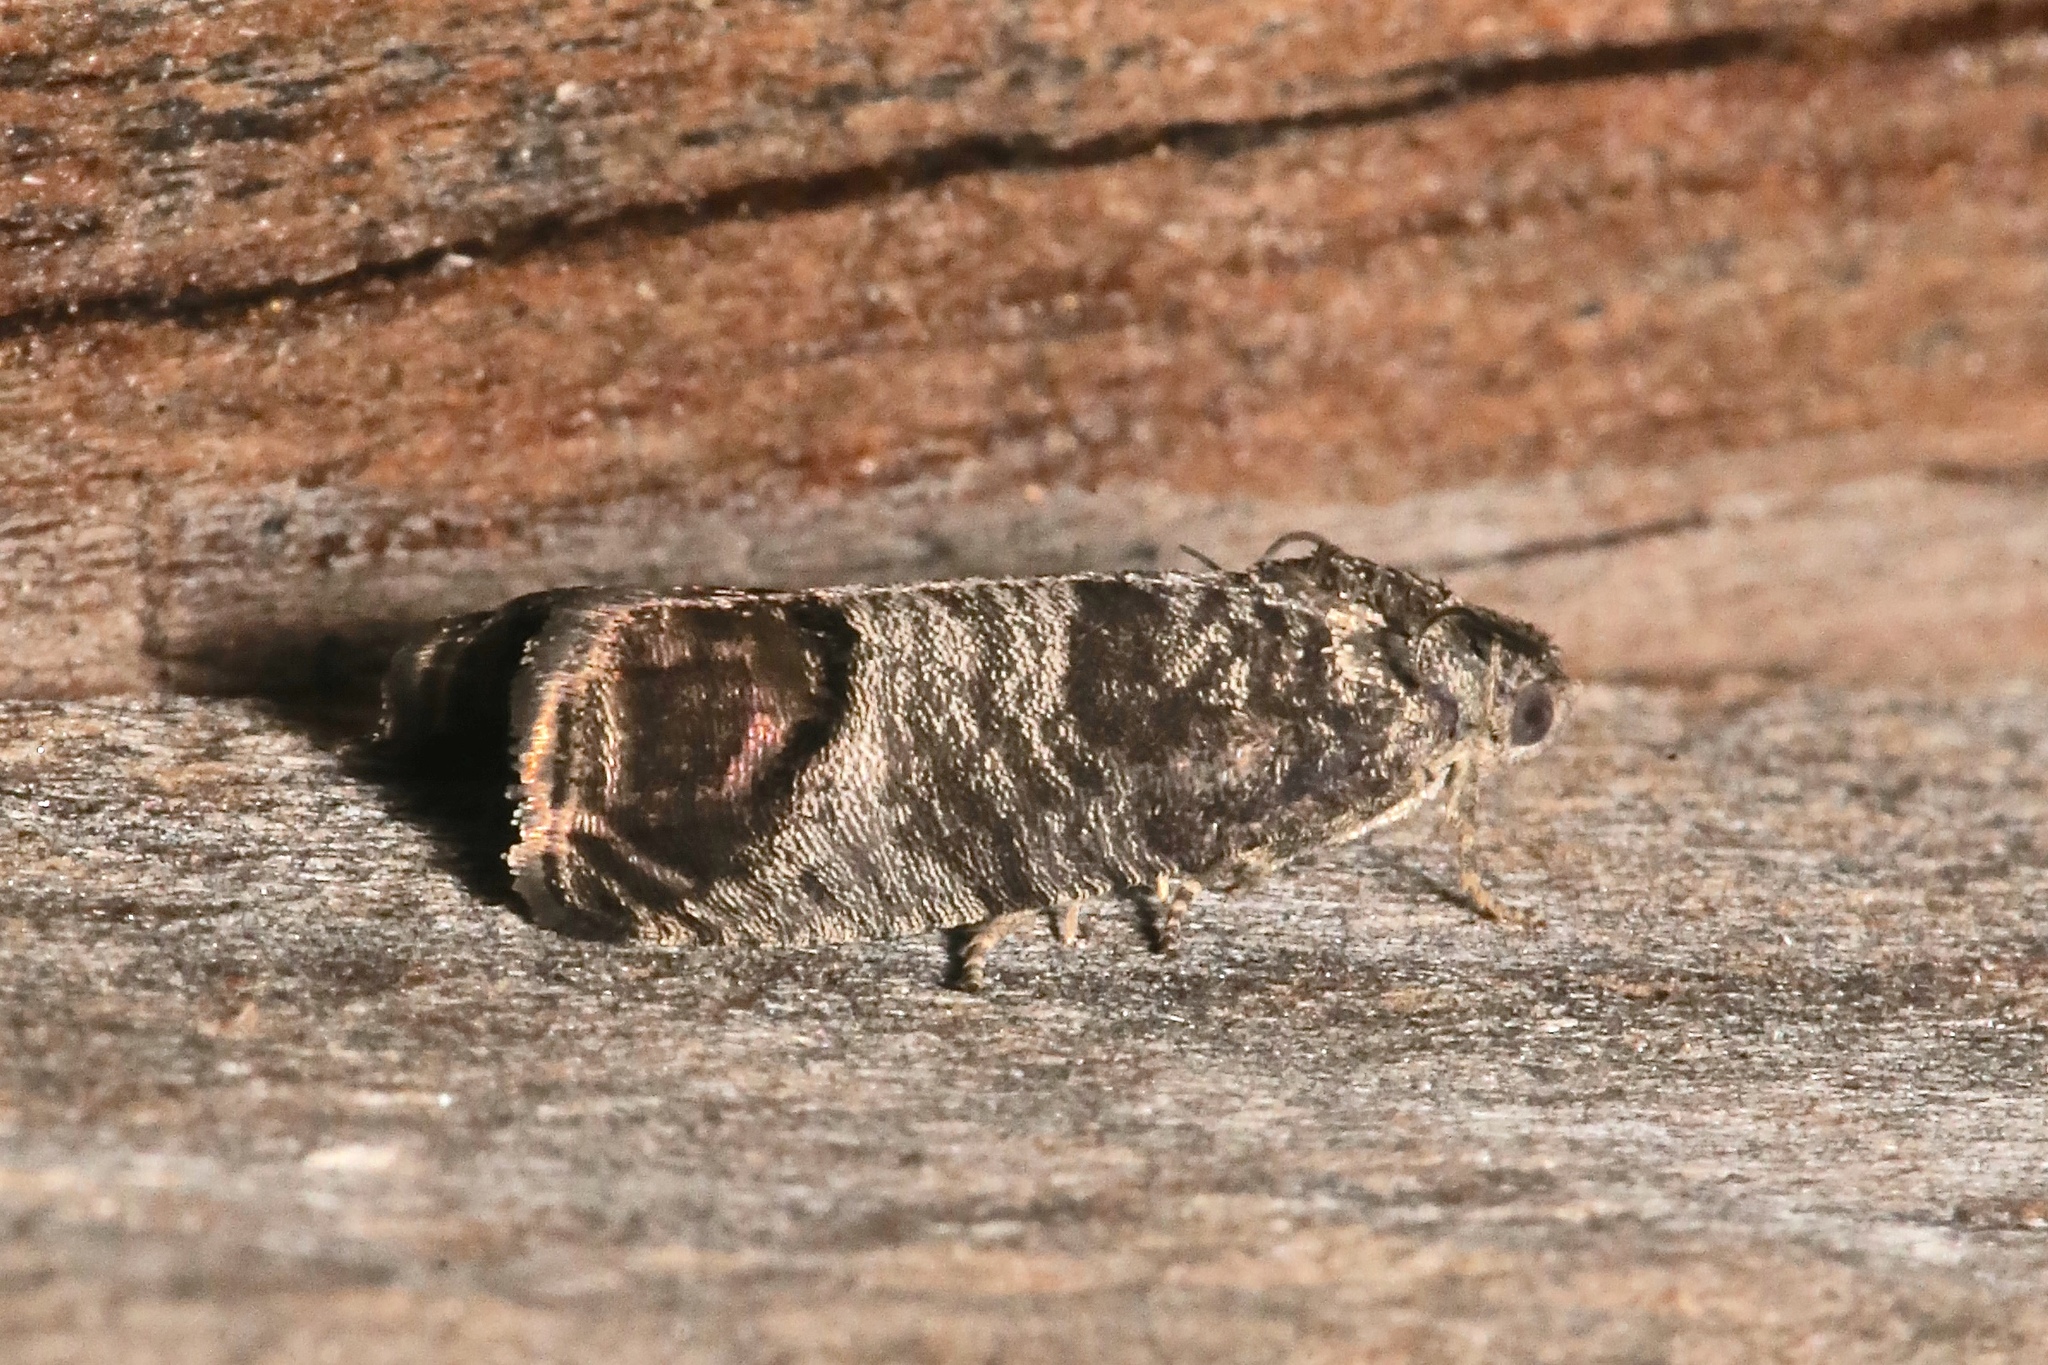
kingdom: Animalia
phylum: Arthropoda
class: Insecta
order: Lepidoptera
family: Tortricidae
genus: Cydia
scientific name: Cydia pomonella
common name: Codling moth
